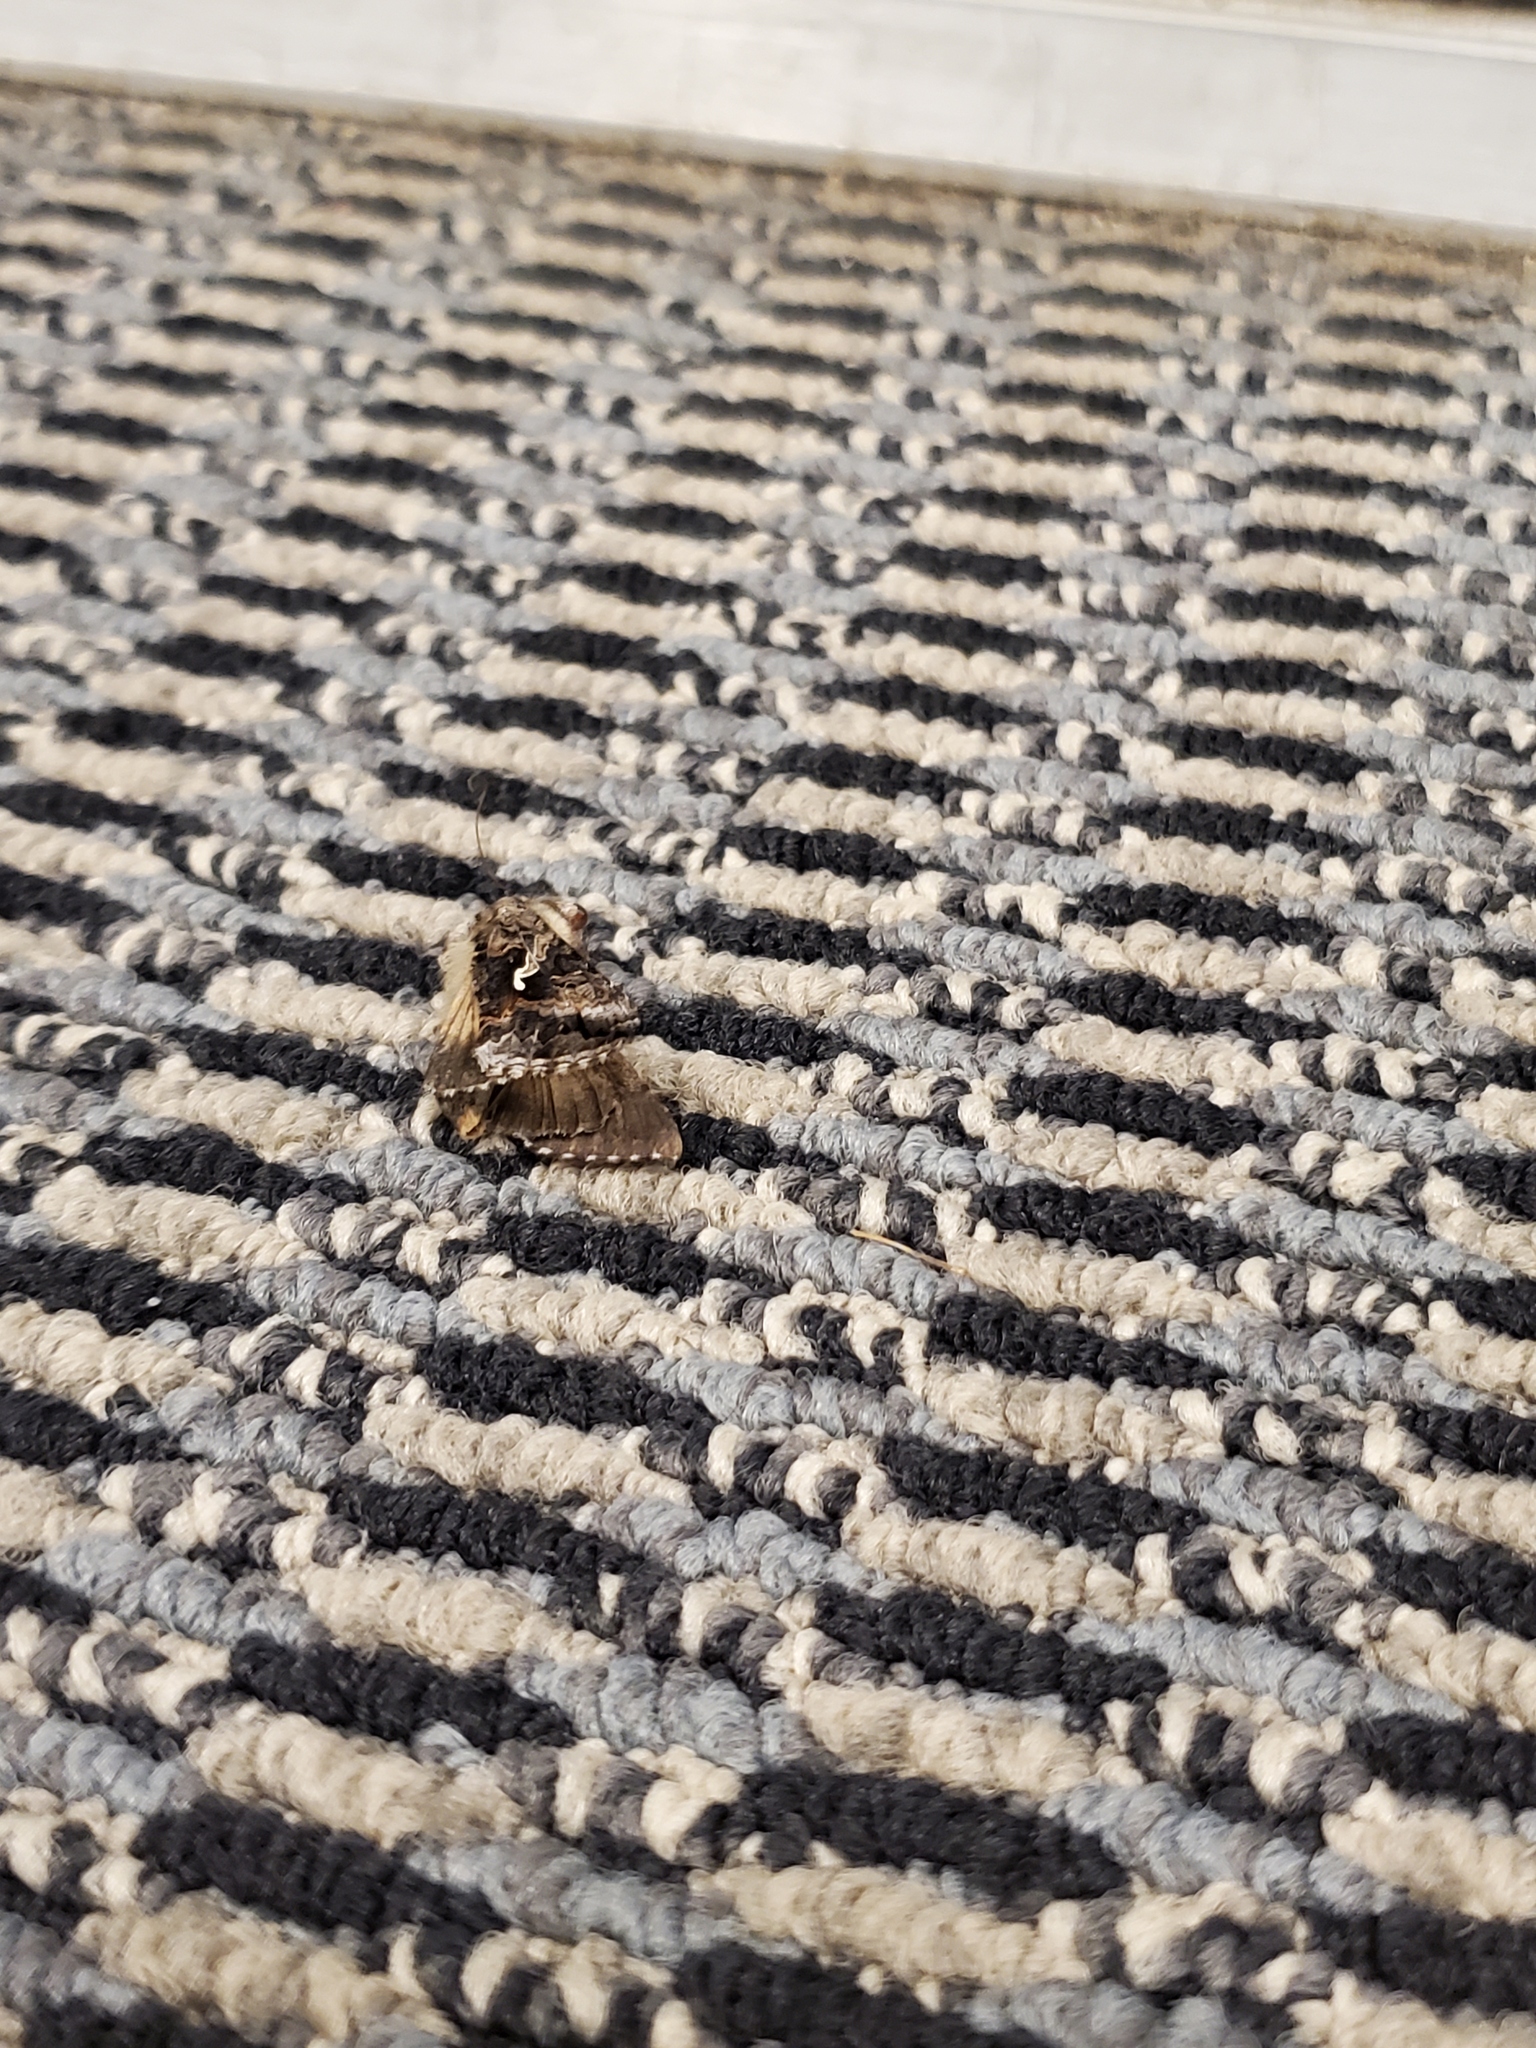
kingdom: Animalia
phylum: Arthropoda
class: Insecta
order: Lepidoptera
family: Noctuidae
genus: Autographa
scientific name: Autographa californica
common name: Alfalfa looper
